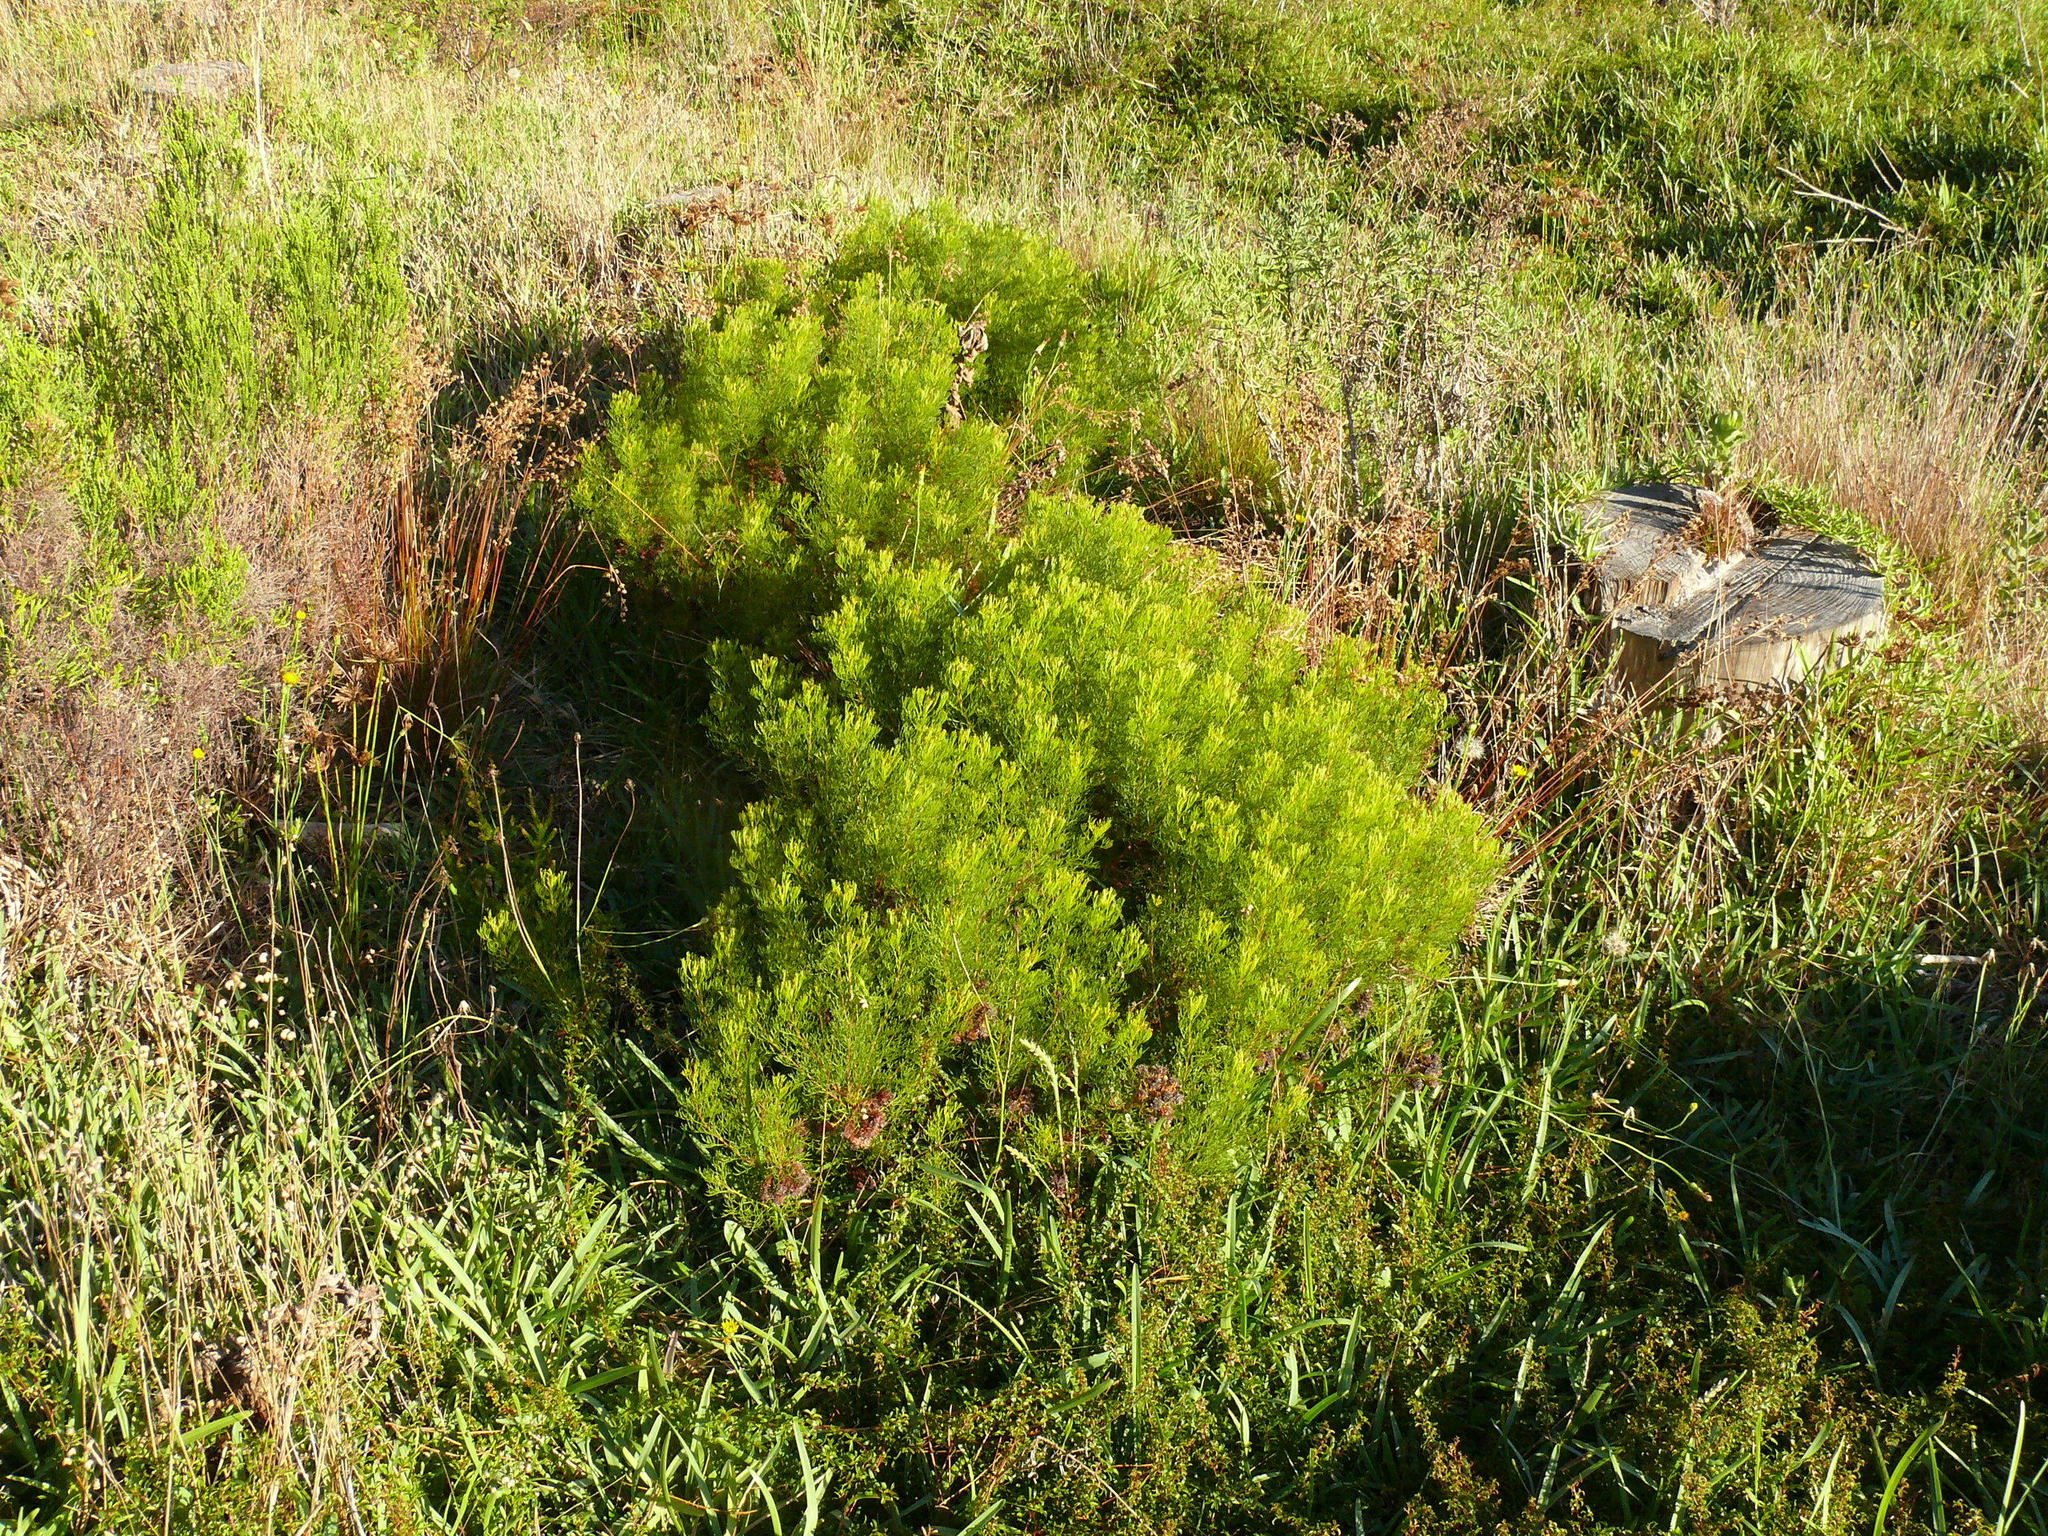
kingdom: Plantae
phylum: Tracheophyta
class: Magnoliopsida
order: Proteales
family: Proteaceae
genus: Serruria
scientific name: Serruria
